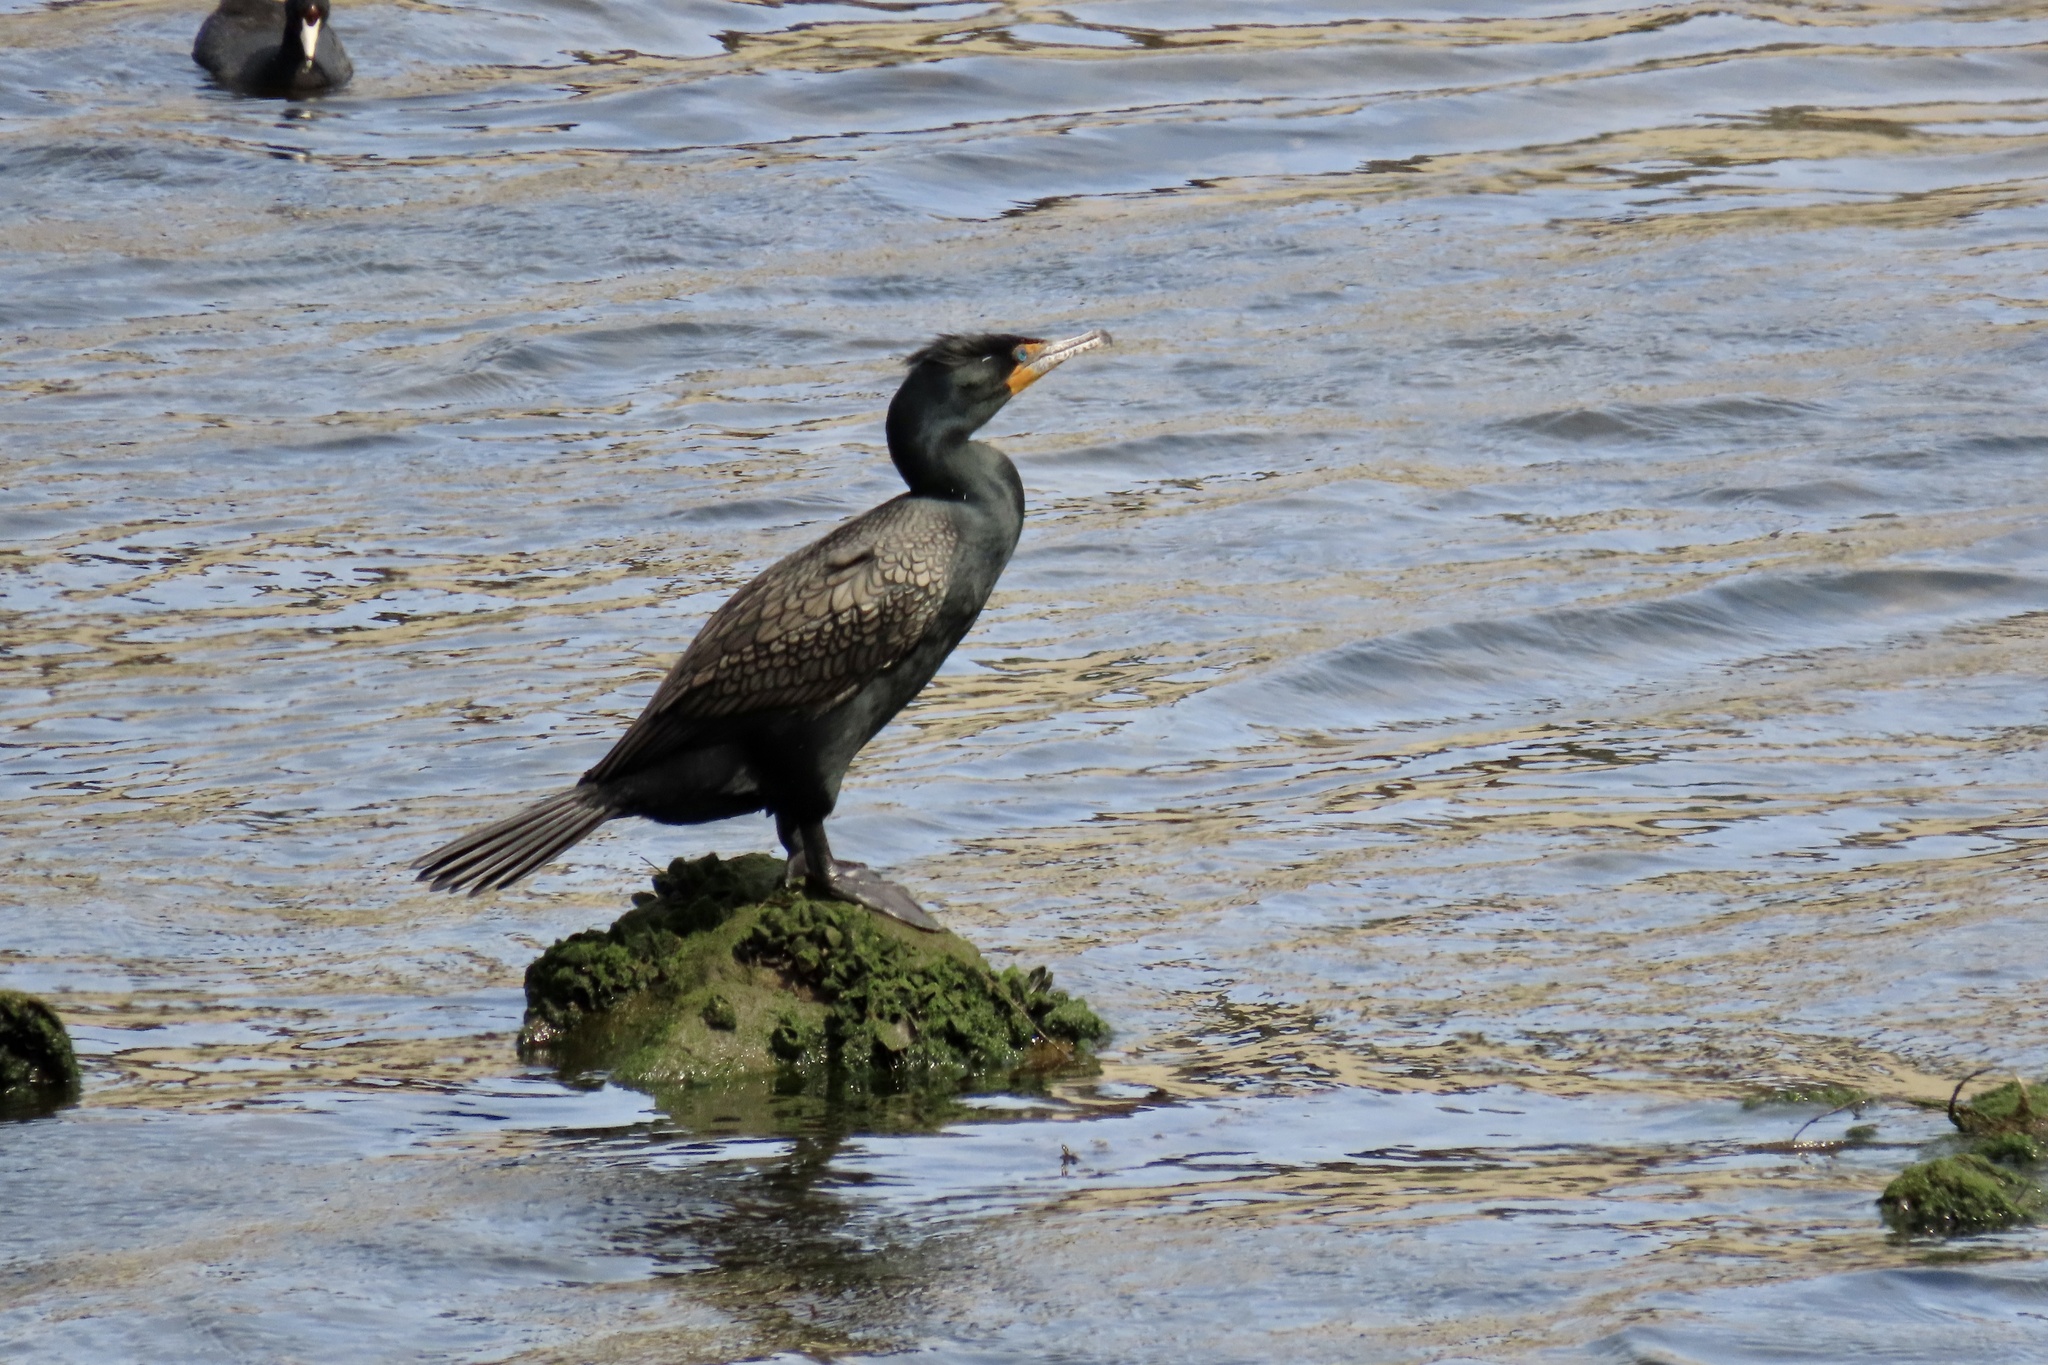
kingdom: Animalia
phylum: Chordata
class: Aves
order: Suliformes
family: Phalacrocoracidae
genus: Phalacrocorax
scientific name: Phalacrocorax auritus
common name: Double-crested cormorant
